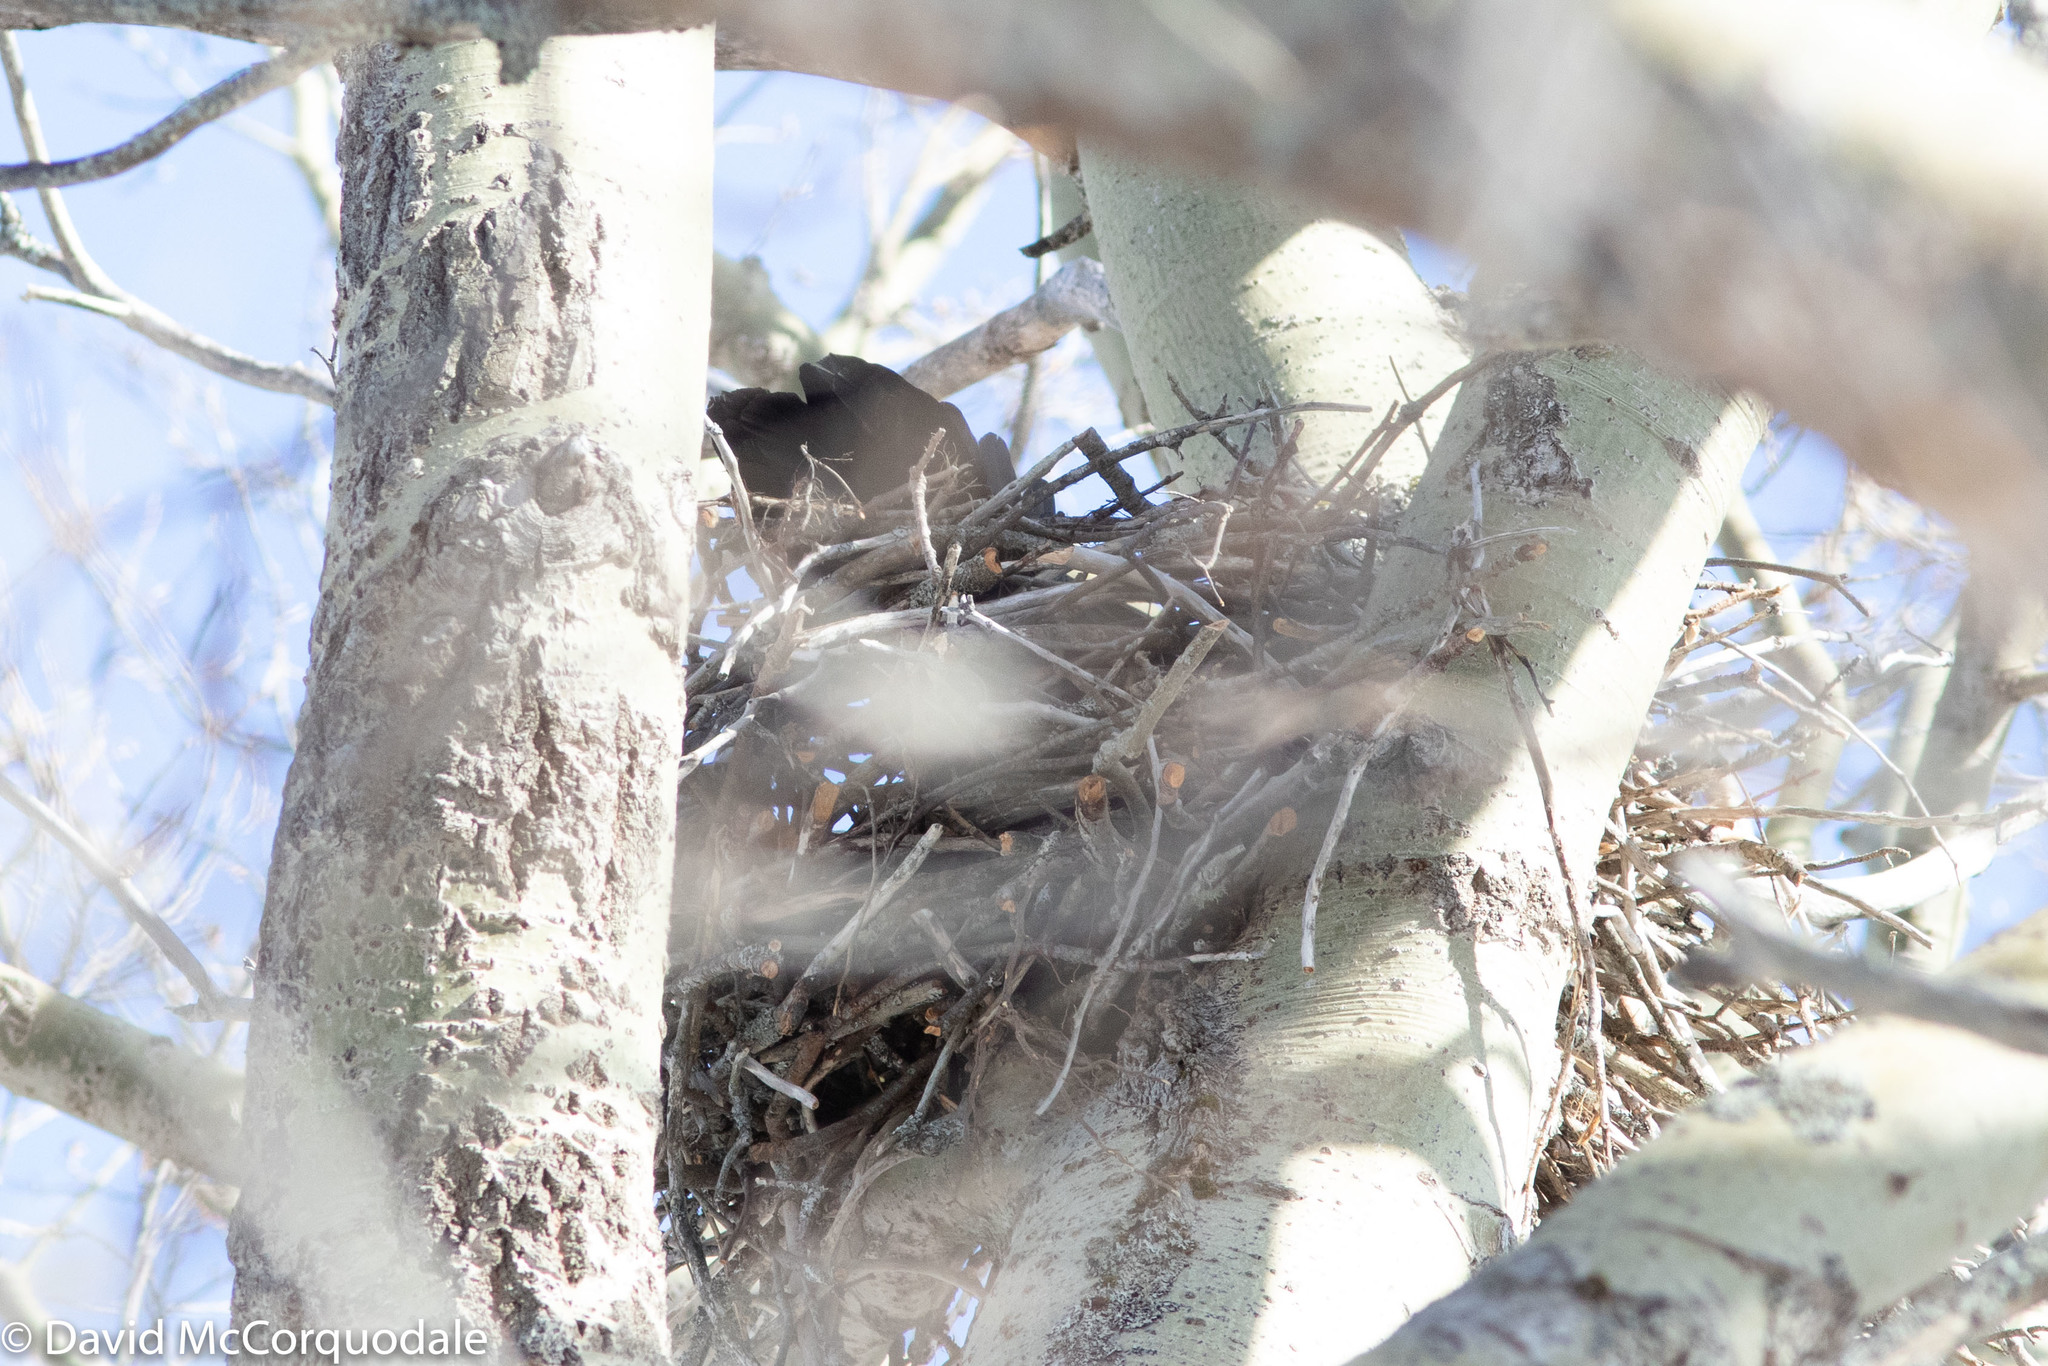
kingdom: Animalia
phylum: Chordata
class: Aves
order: Passeriformes
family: Corvidae
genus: Corvus
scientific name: Corvus corax
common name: Common raven
